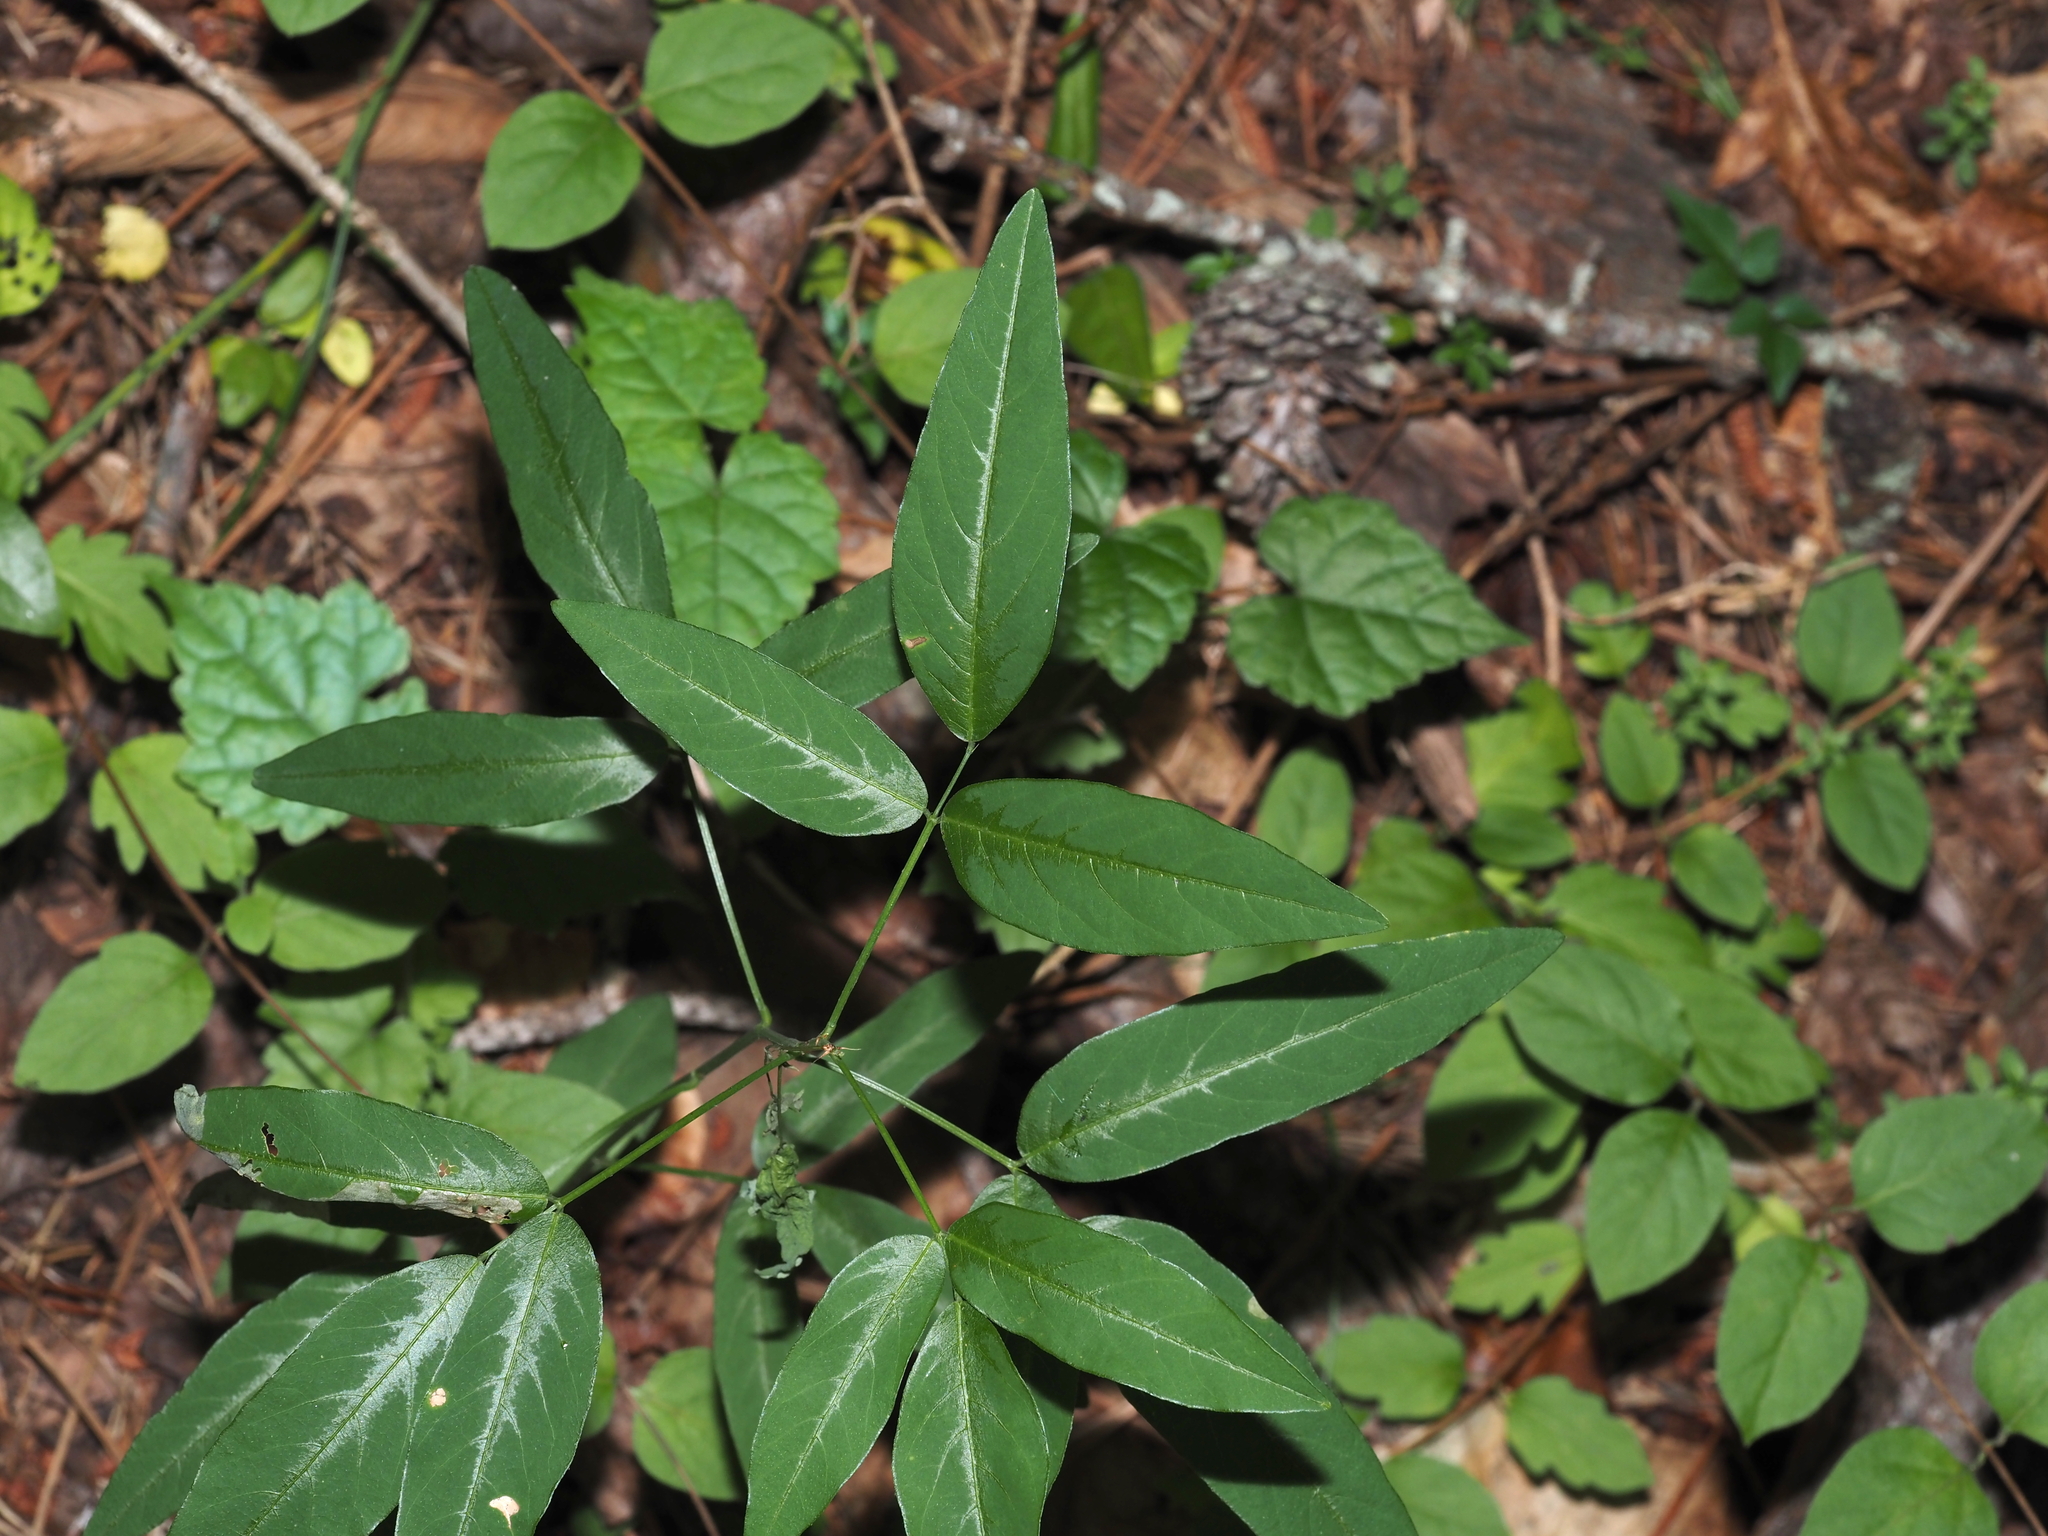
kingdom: Plantae
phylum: Tracheophyta
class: Magnoliopsida
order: Fabales
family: Fabaceae
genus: Desmodium
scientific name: Desmodium paniculatum
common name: Panicled tick-clover
